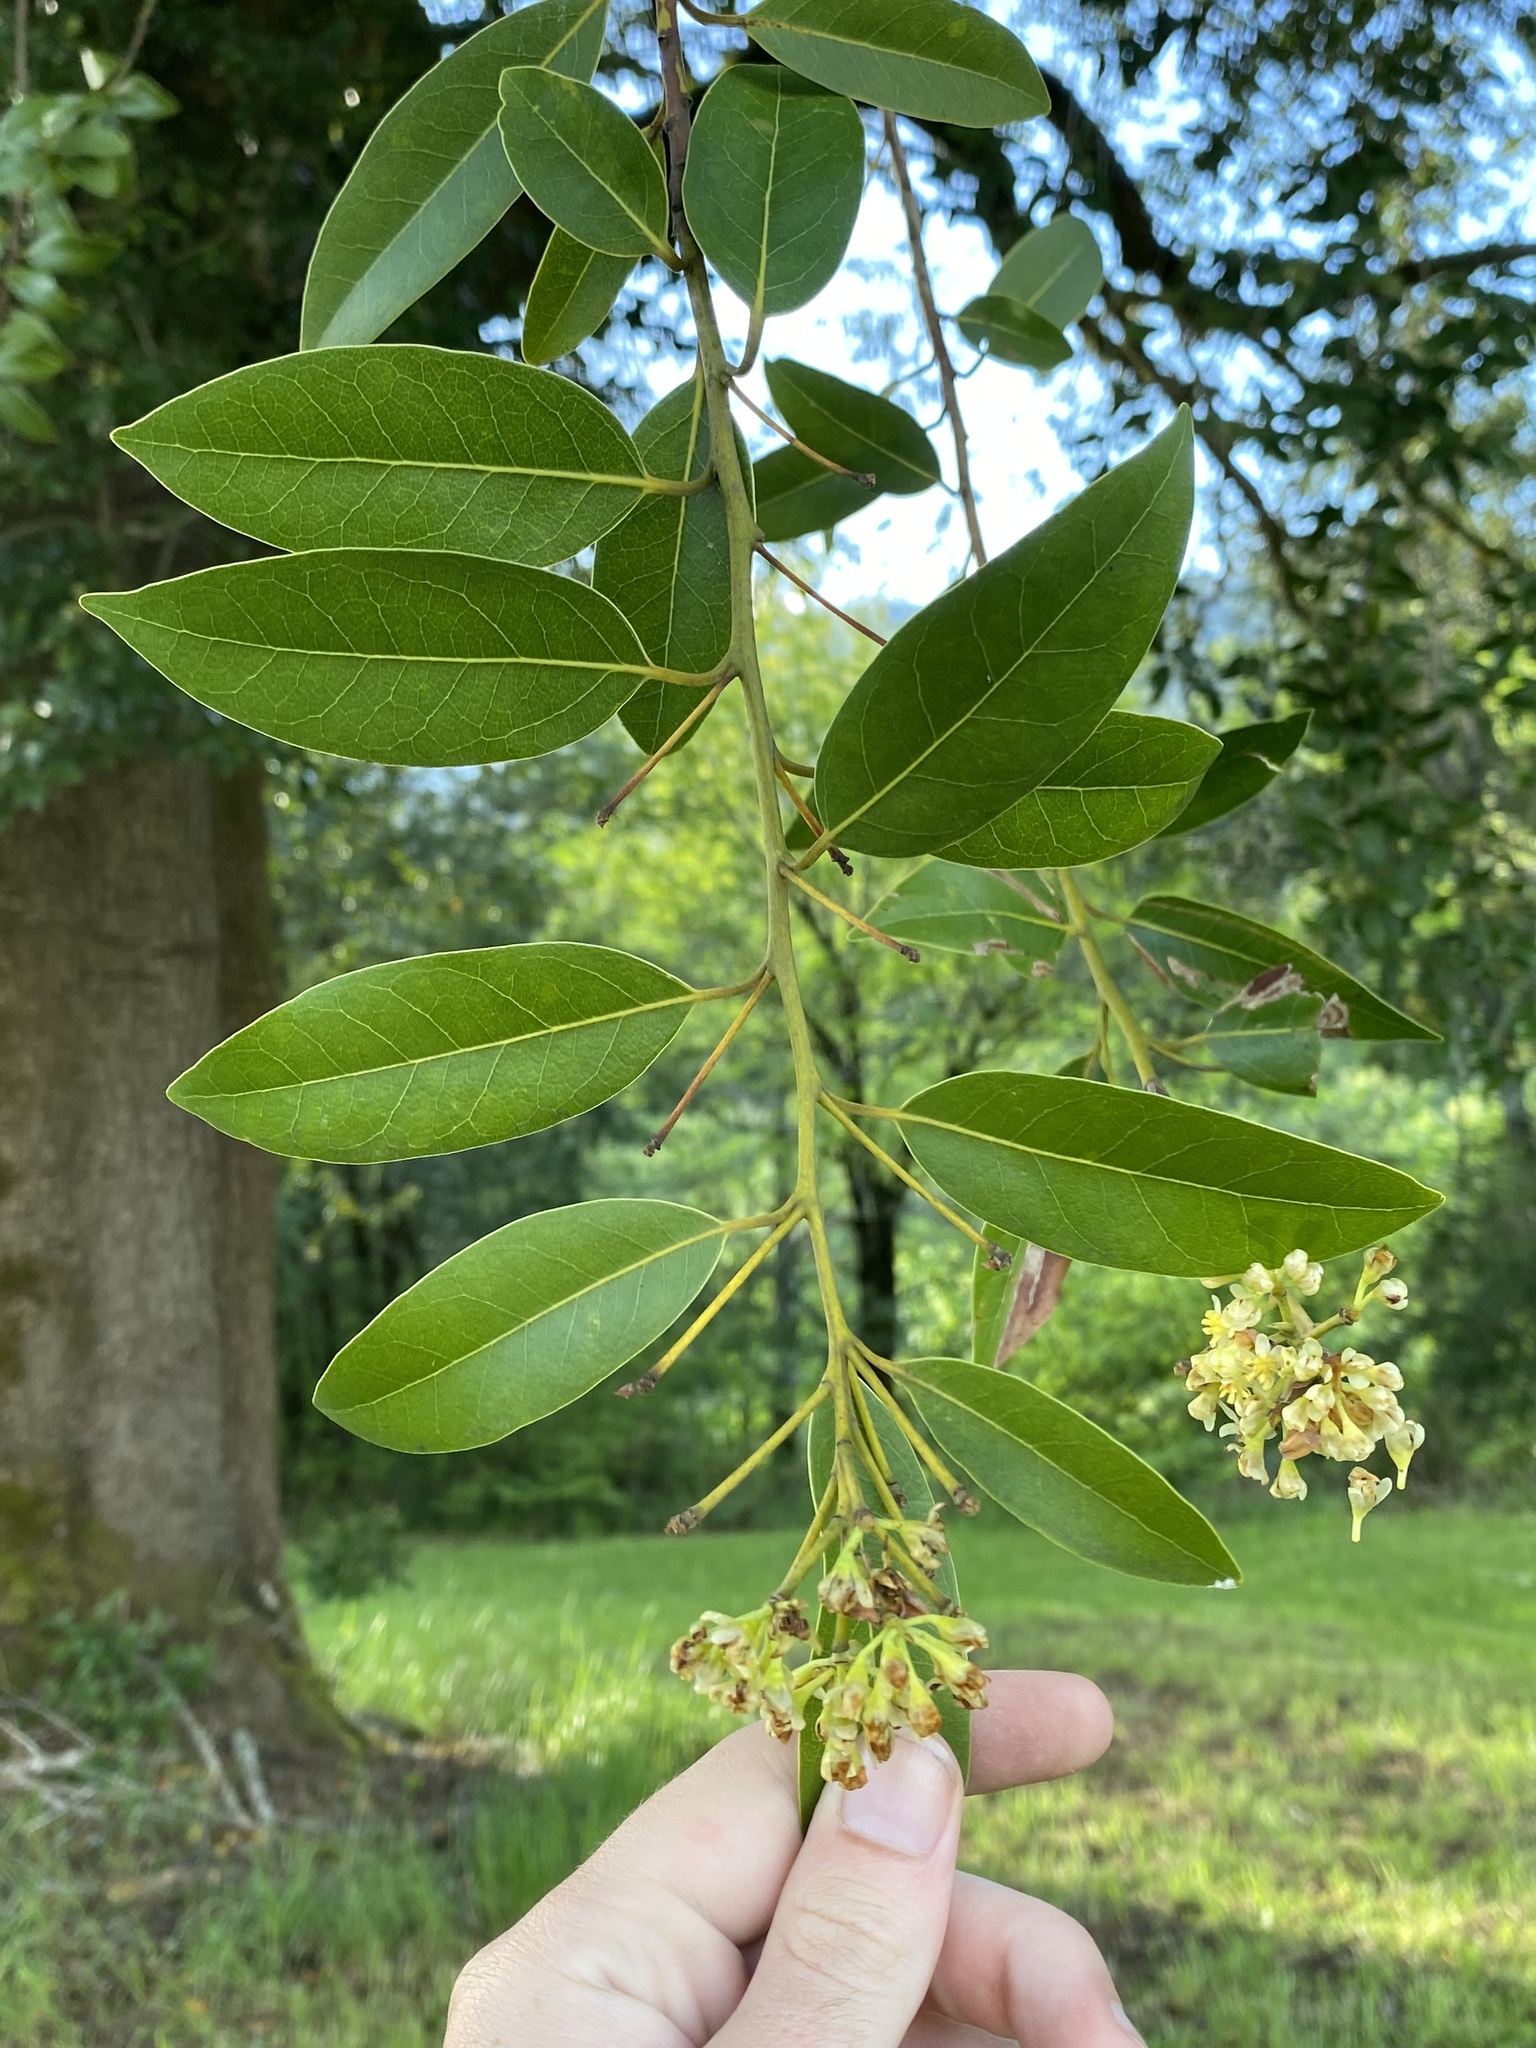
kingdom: Plantae
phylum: Tracheophyta
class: Magnoliopsida
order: Laurales
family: Lauraceae
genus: Umbellularia
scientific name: Umbellularia californica
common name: California bay
